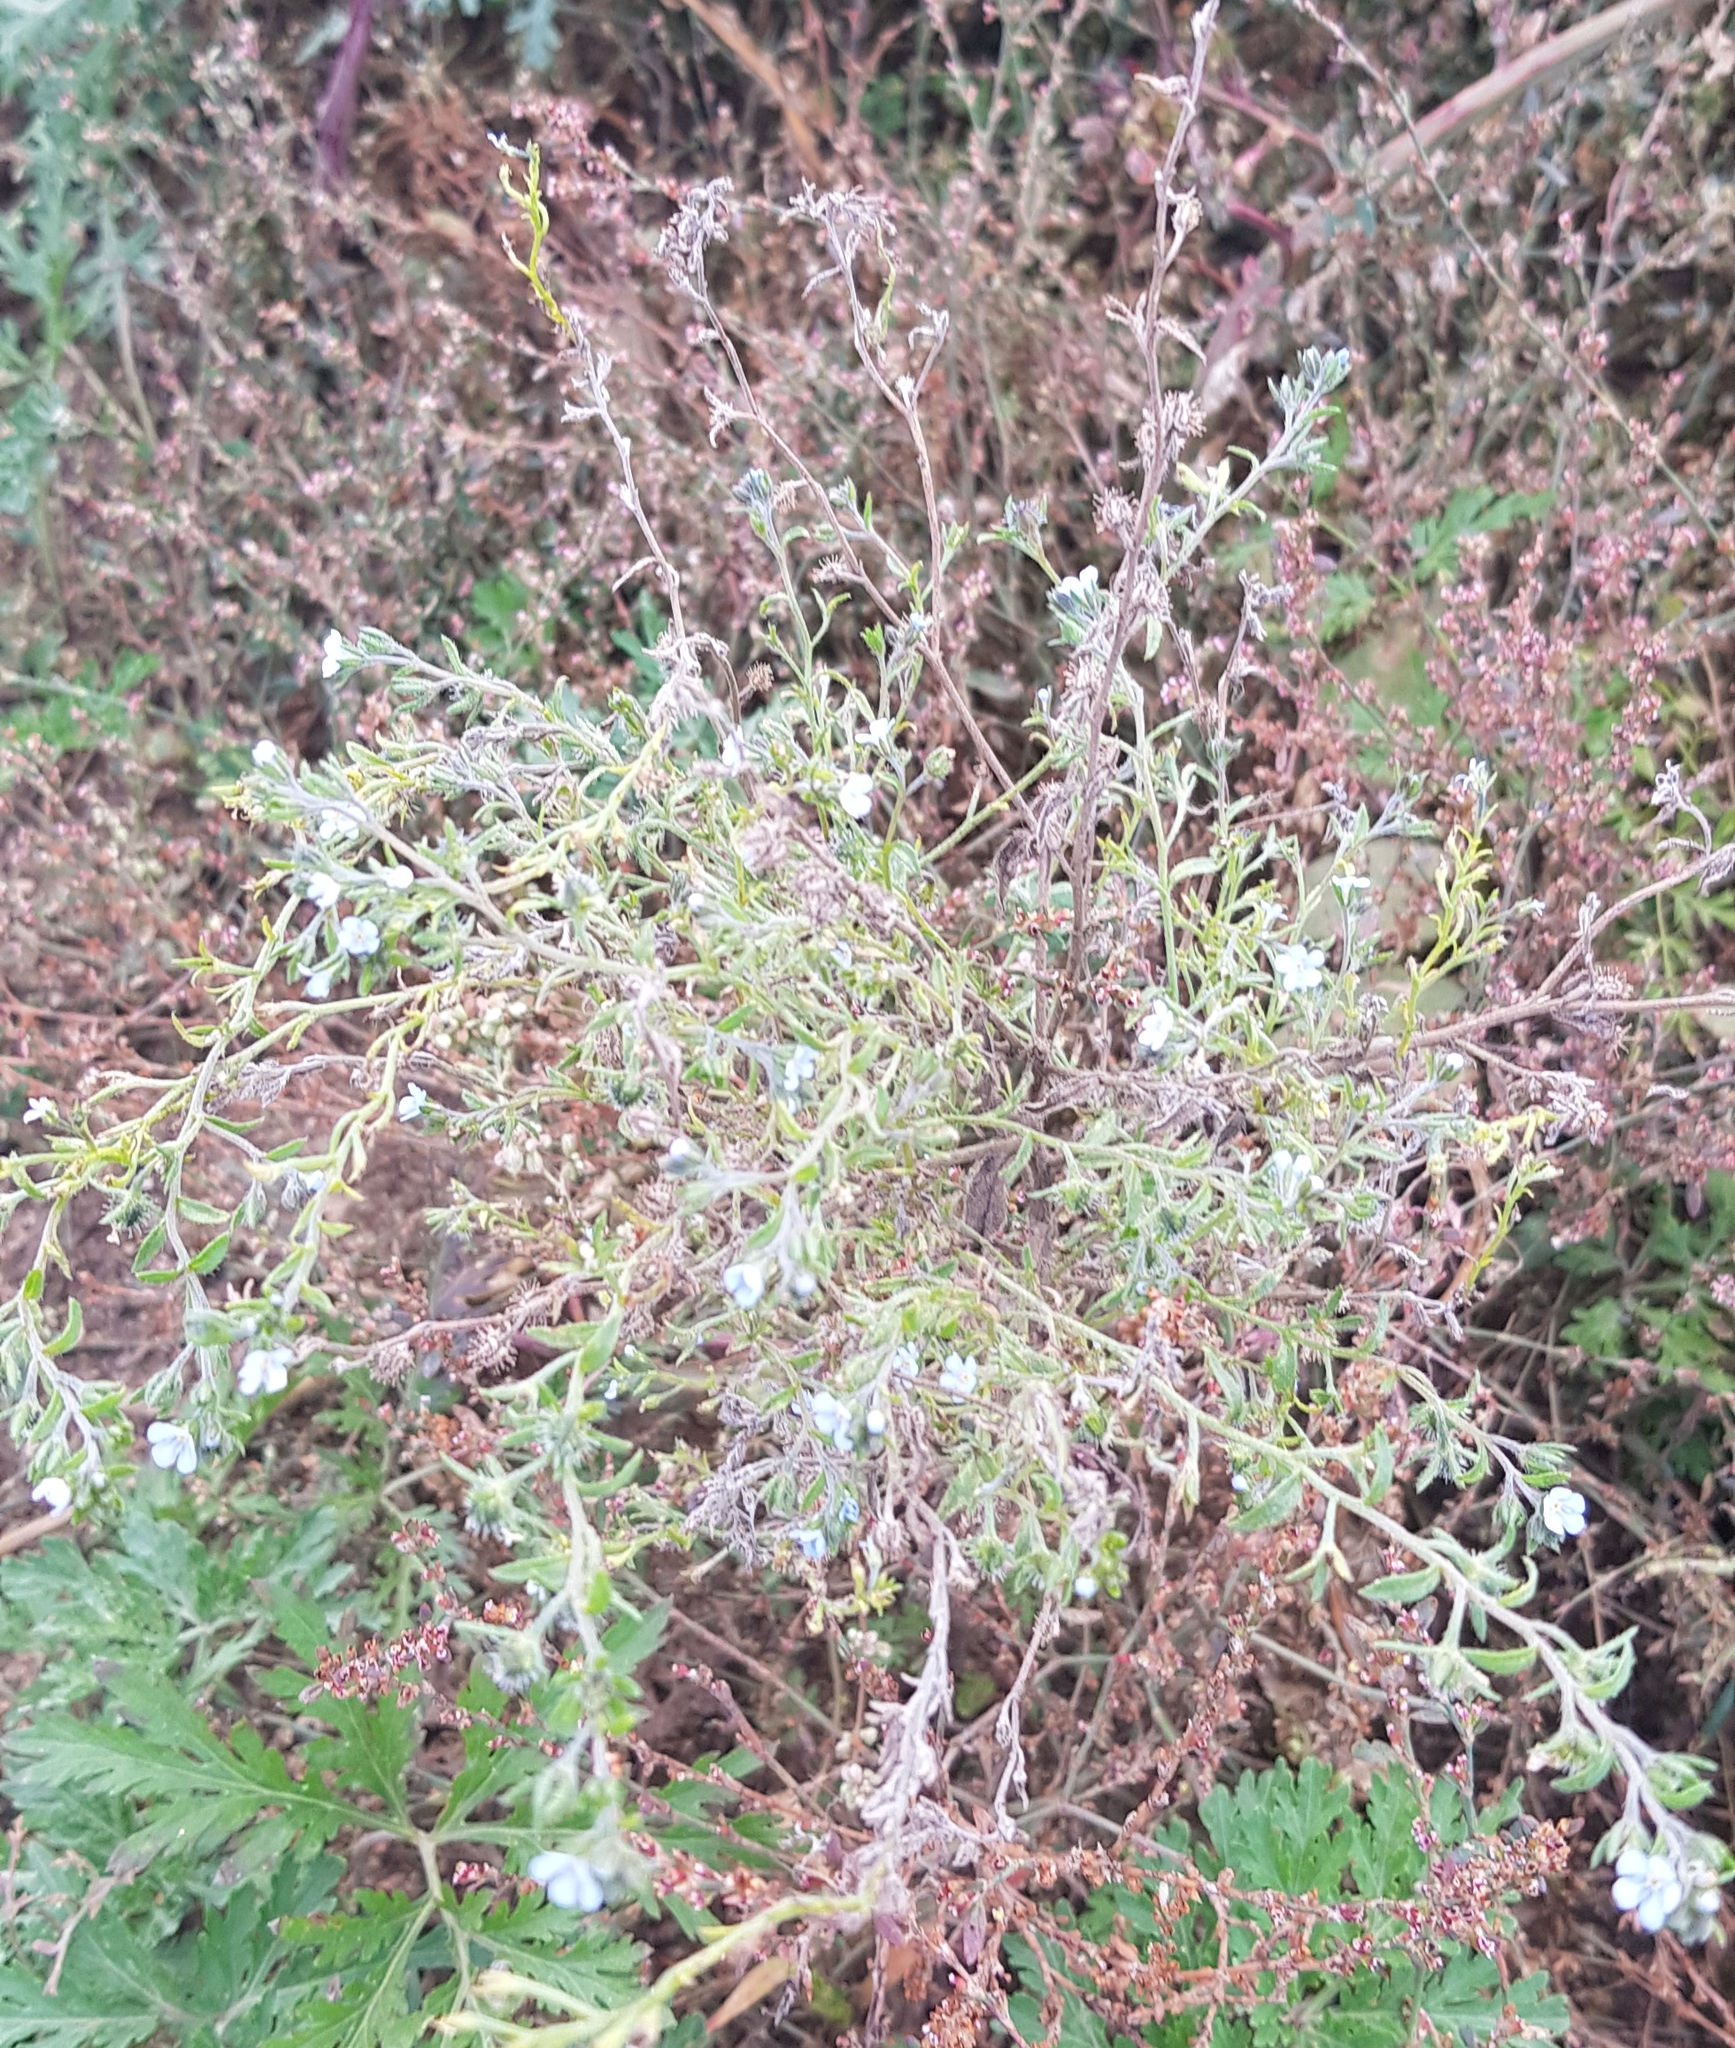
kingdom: Plantae
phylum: Tracheophyta
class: Magnoliopsida
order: Boraginales
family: Boraginaceae
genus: Lappula
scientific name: Lappula squarrosa
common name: European stickseed
